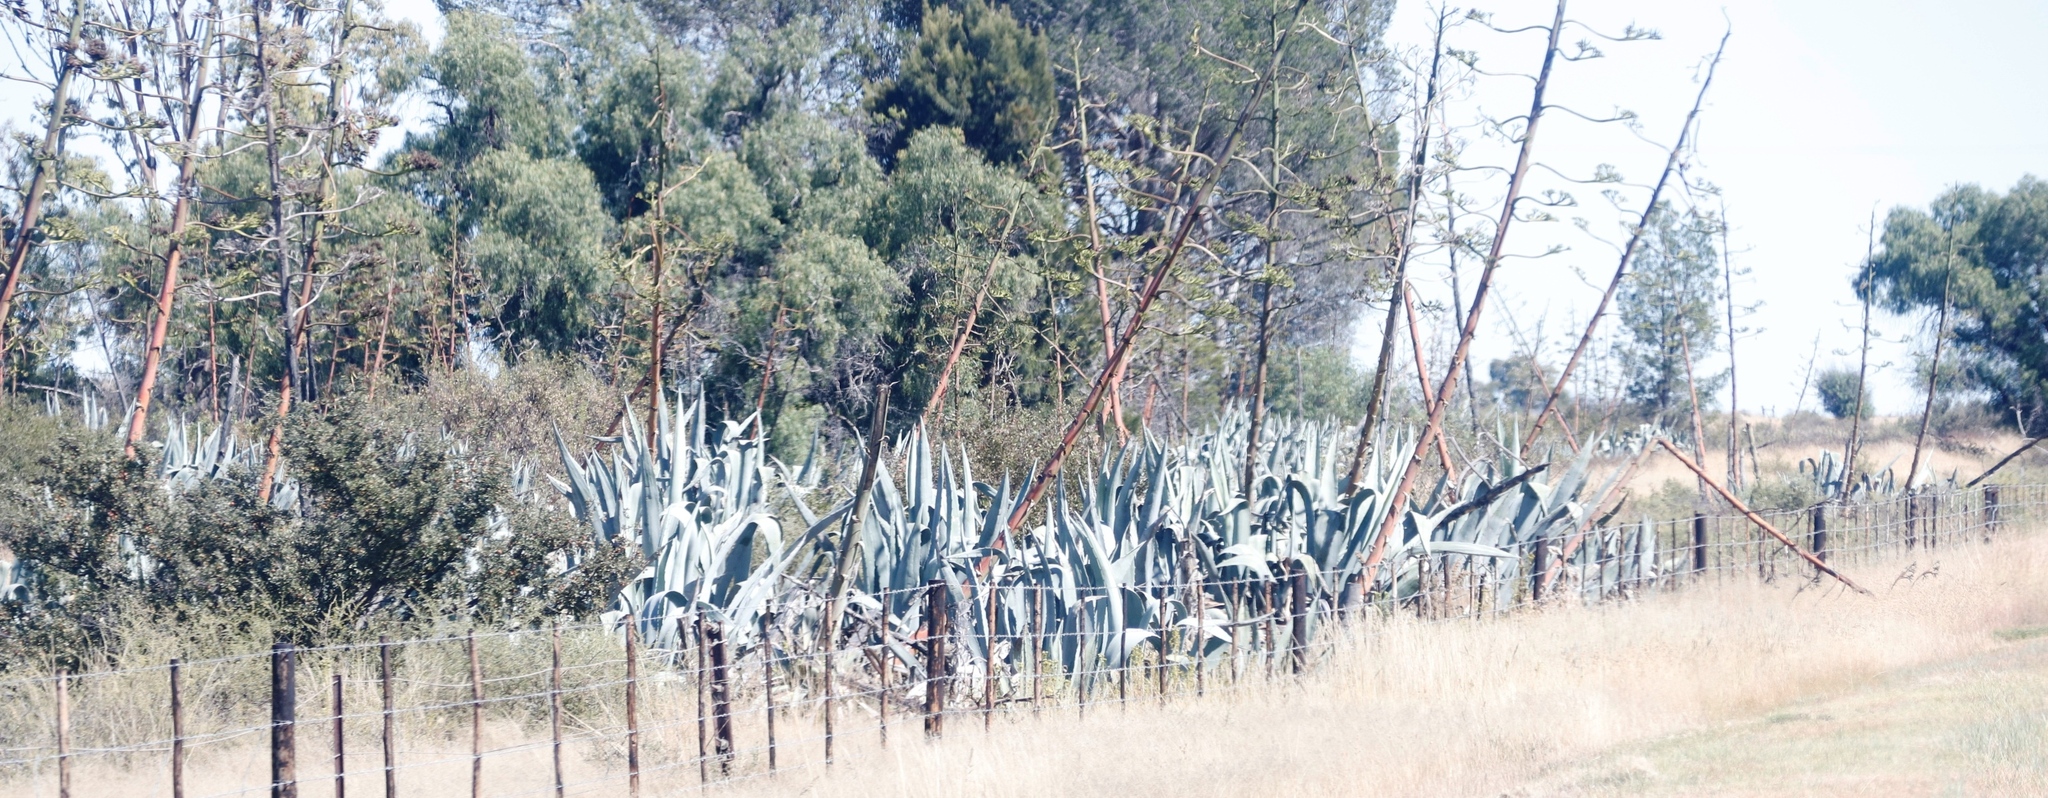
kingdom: Plantae
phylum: Tracheophyta
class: Liliopsida
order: Asparagales
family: Asparagaceae
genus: Agave
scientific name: Agave americana
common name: Centuryplant
